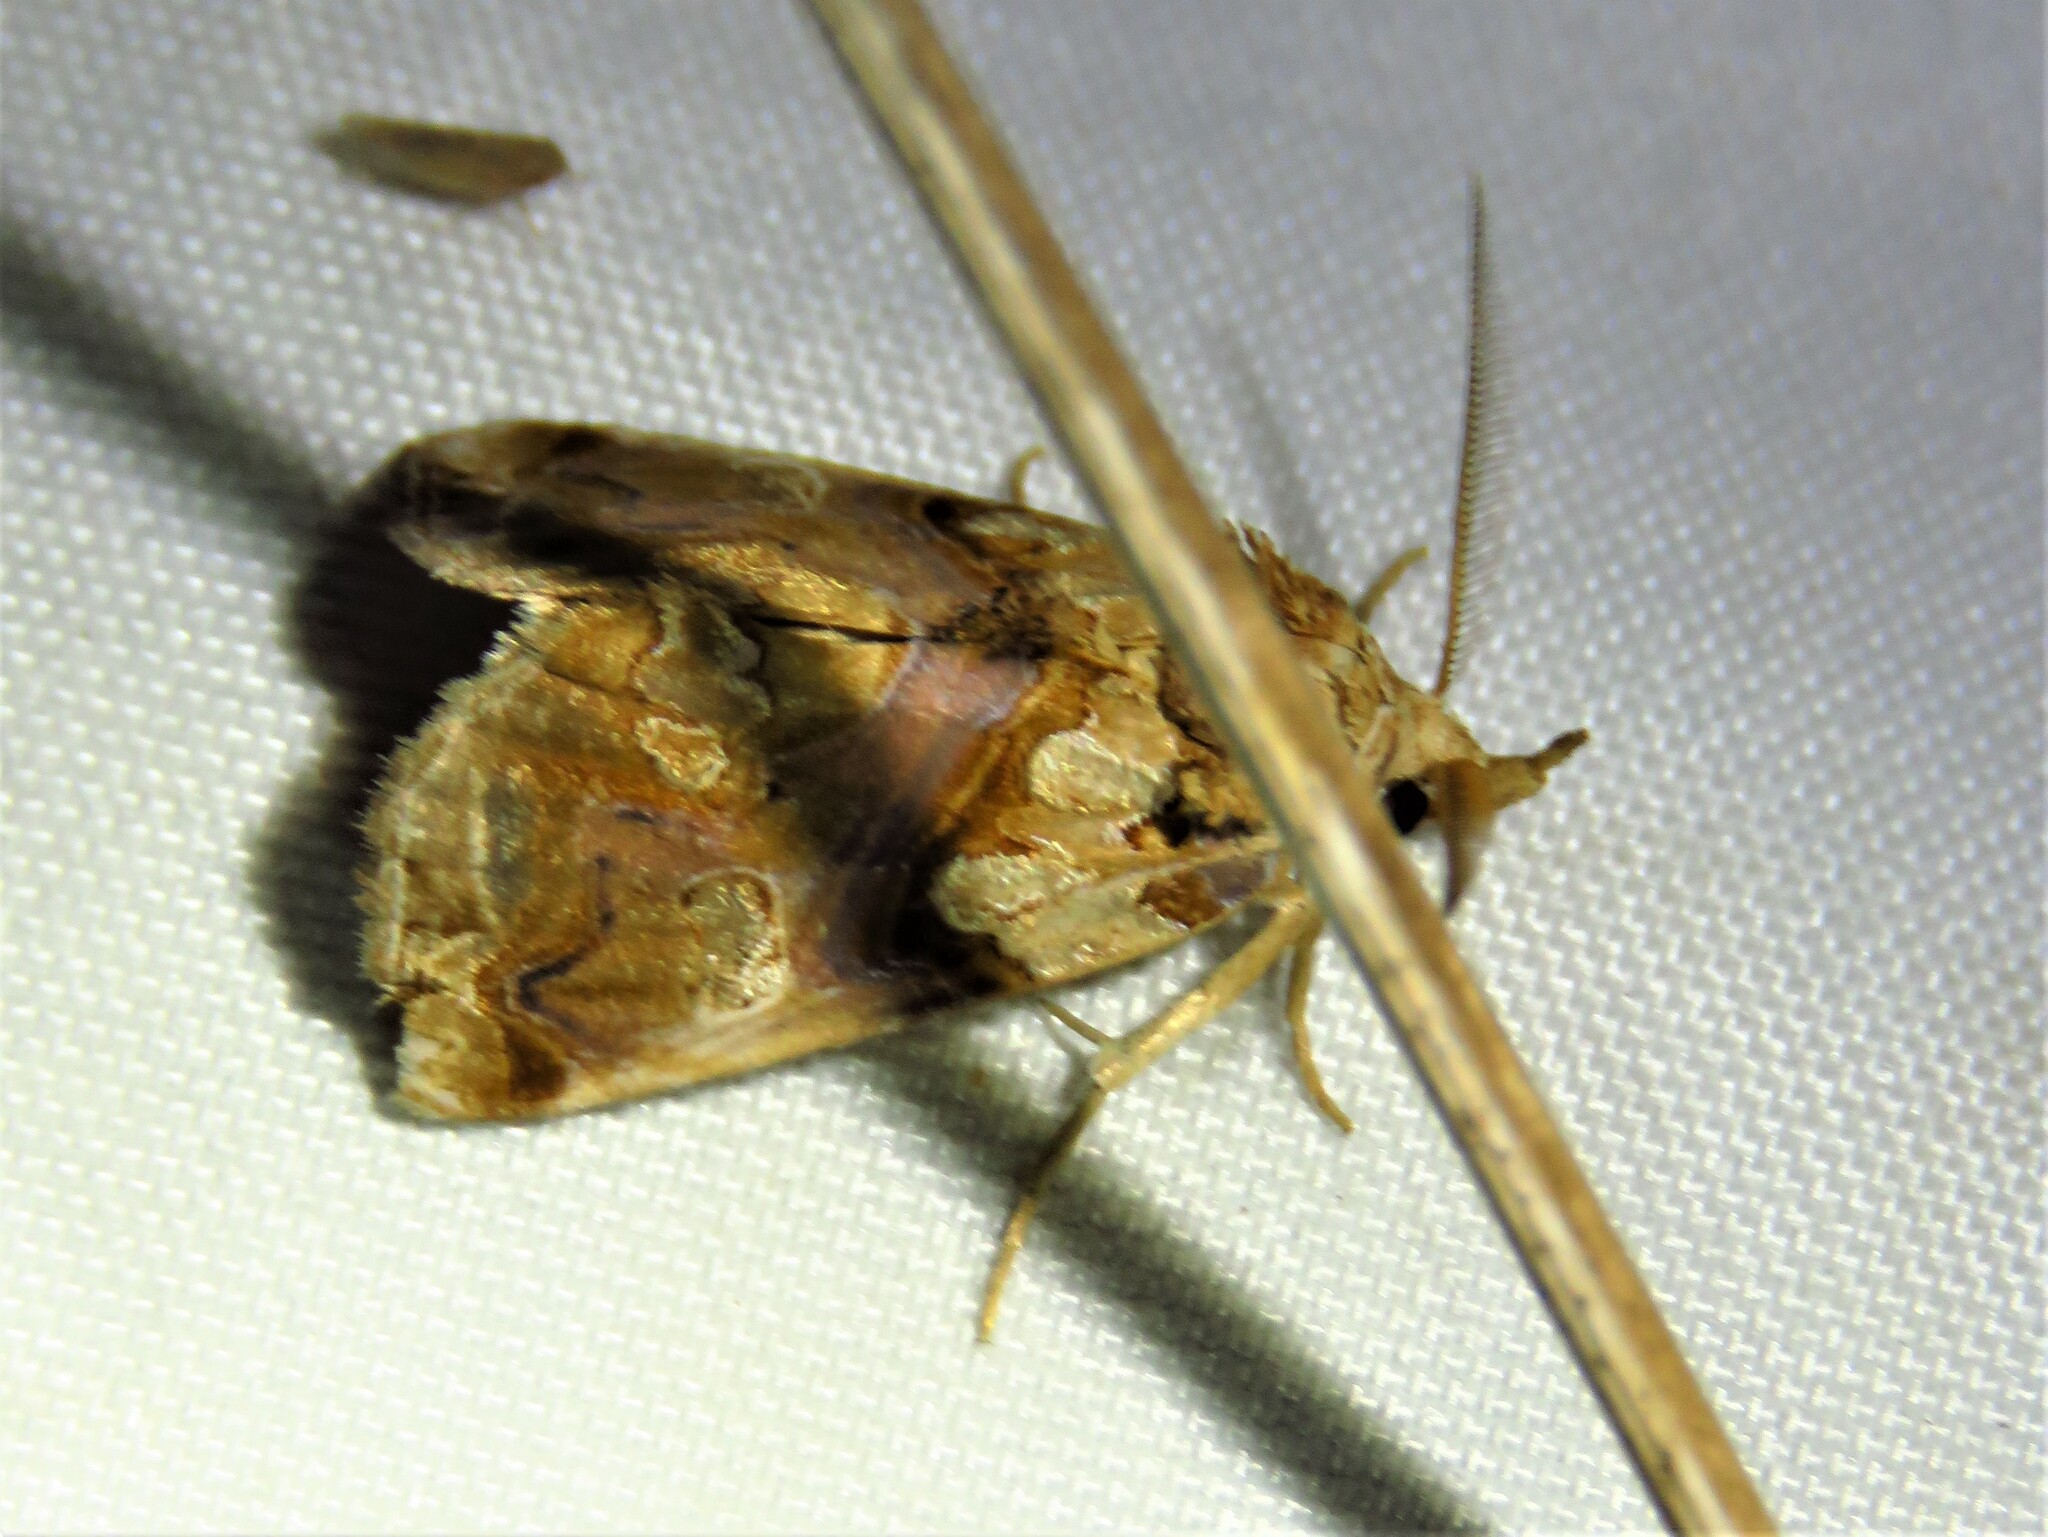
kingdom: Animalia
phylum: Arthropoda
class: Insecta
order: Lepidoptera
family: Erebidae
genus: Plusiodonta
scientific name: Plusiodonta compressipalpis
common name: Moonseed moth
